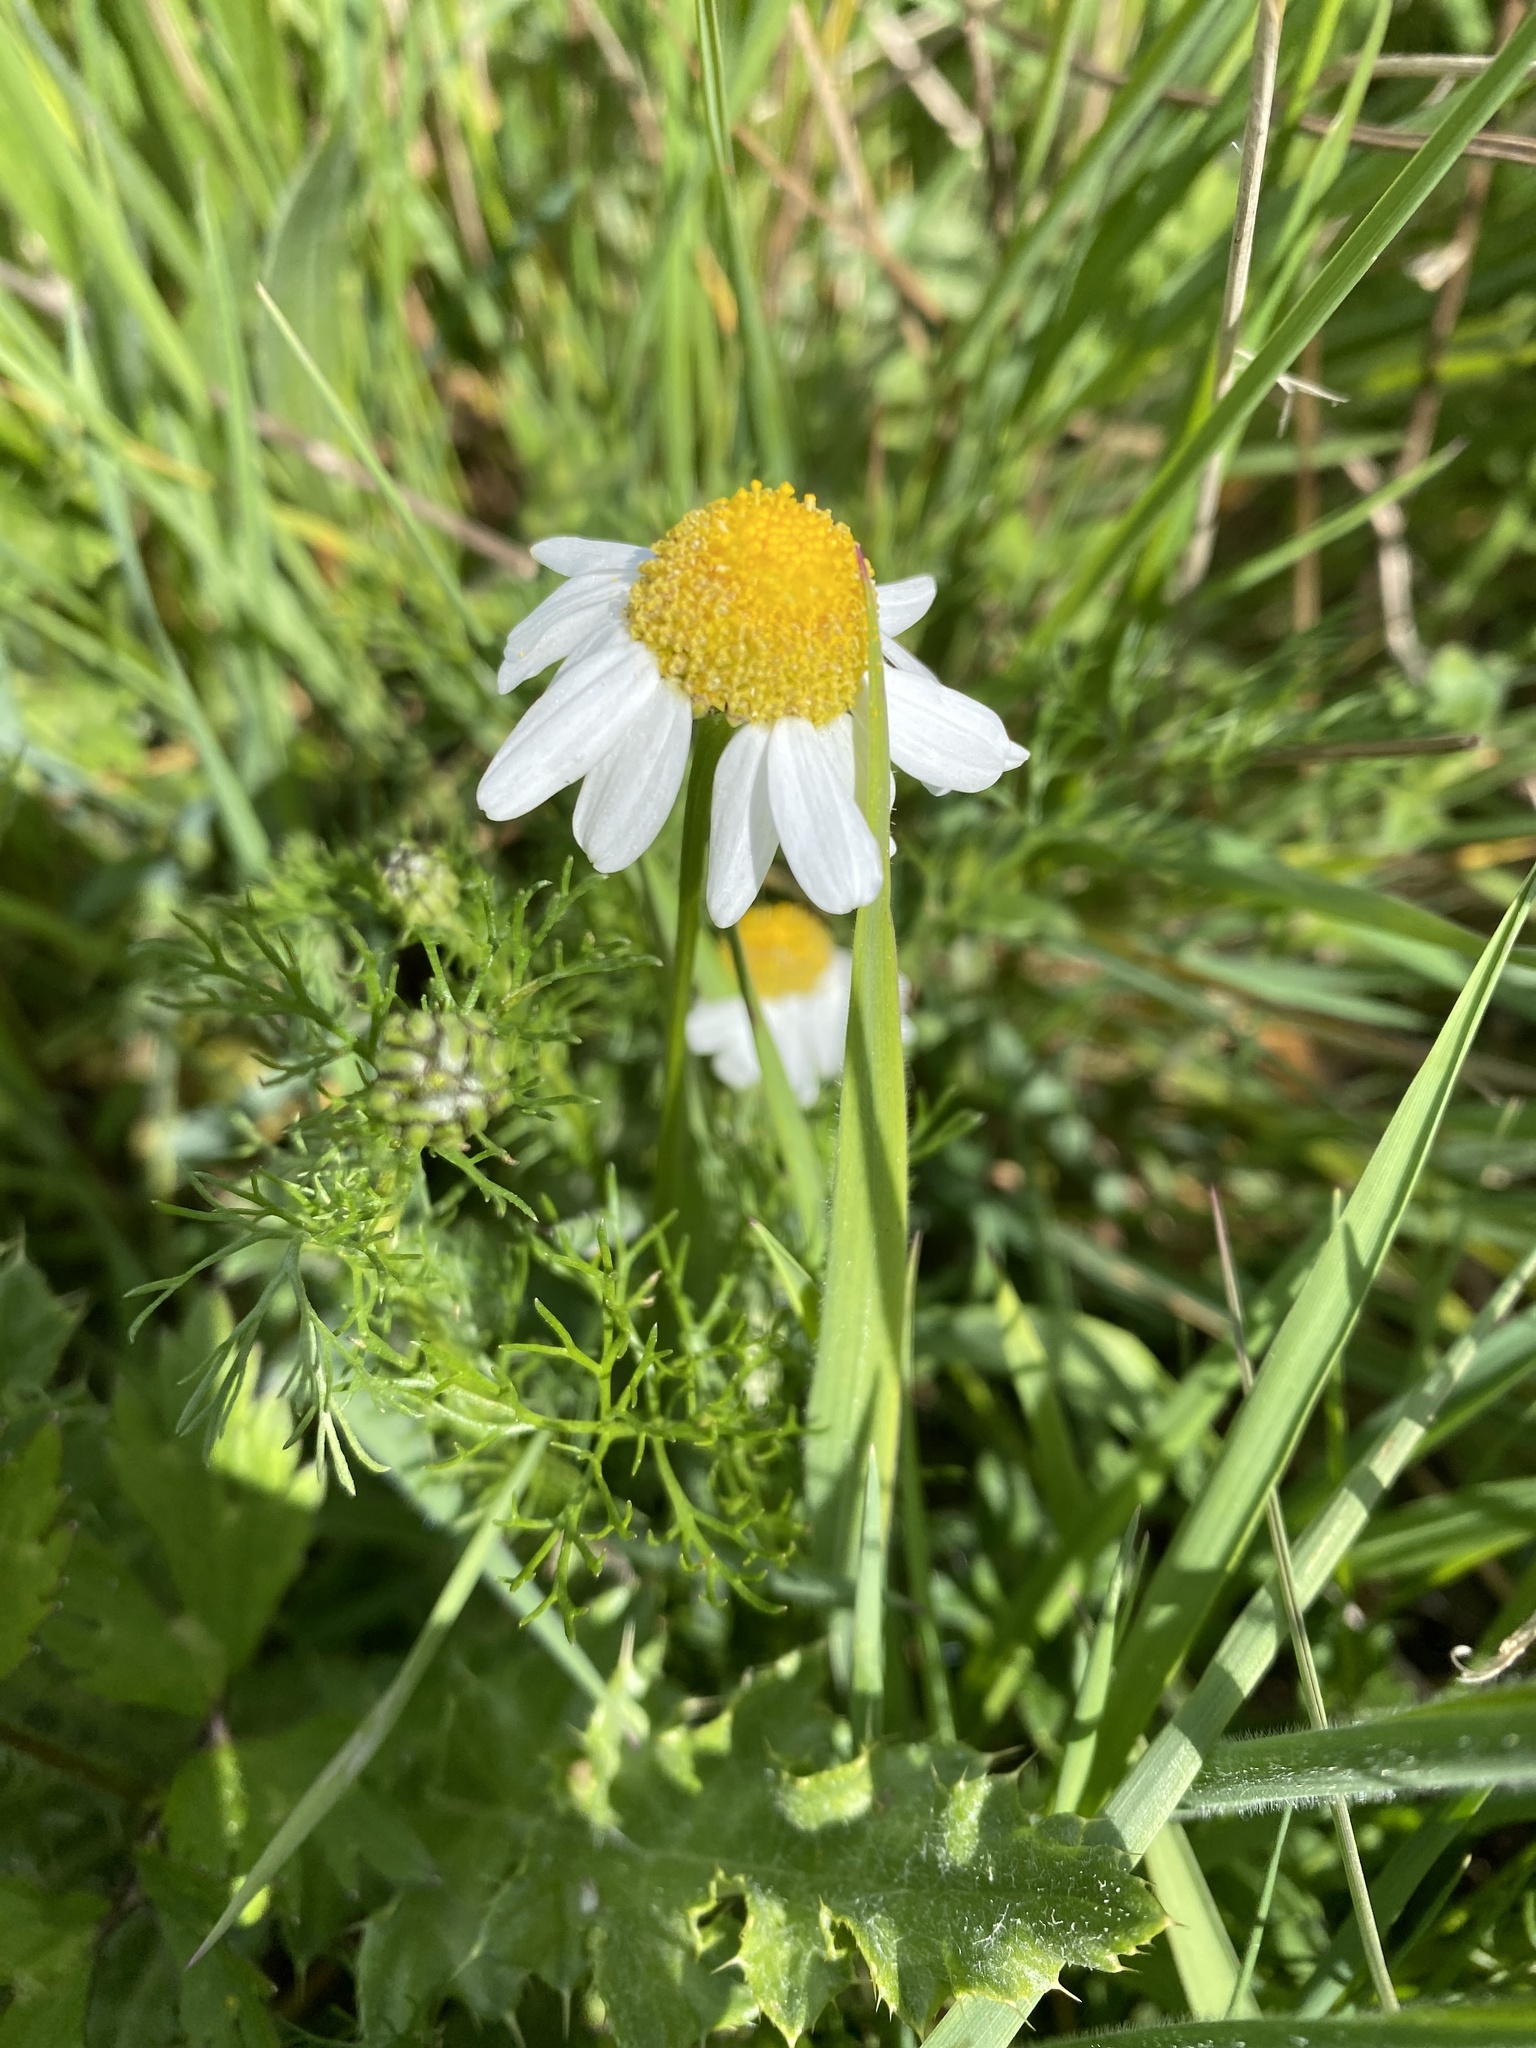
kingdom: Plantae
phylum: Tracheophyta
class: Magnoliopsida
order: Asterales
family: Asteraceae
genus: Matricaria
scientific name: Matricaria chamomilla
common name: Scented mayweed
